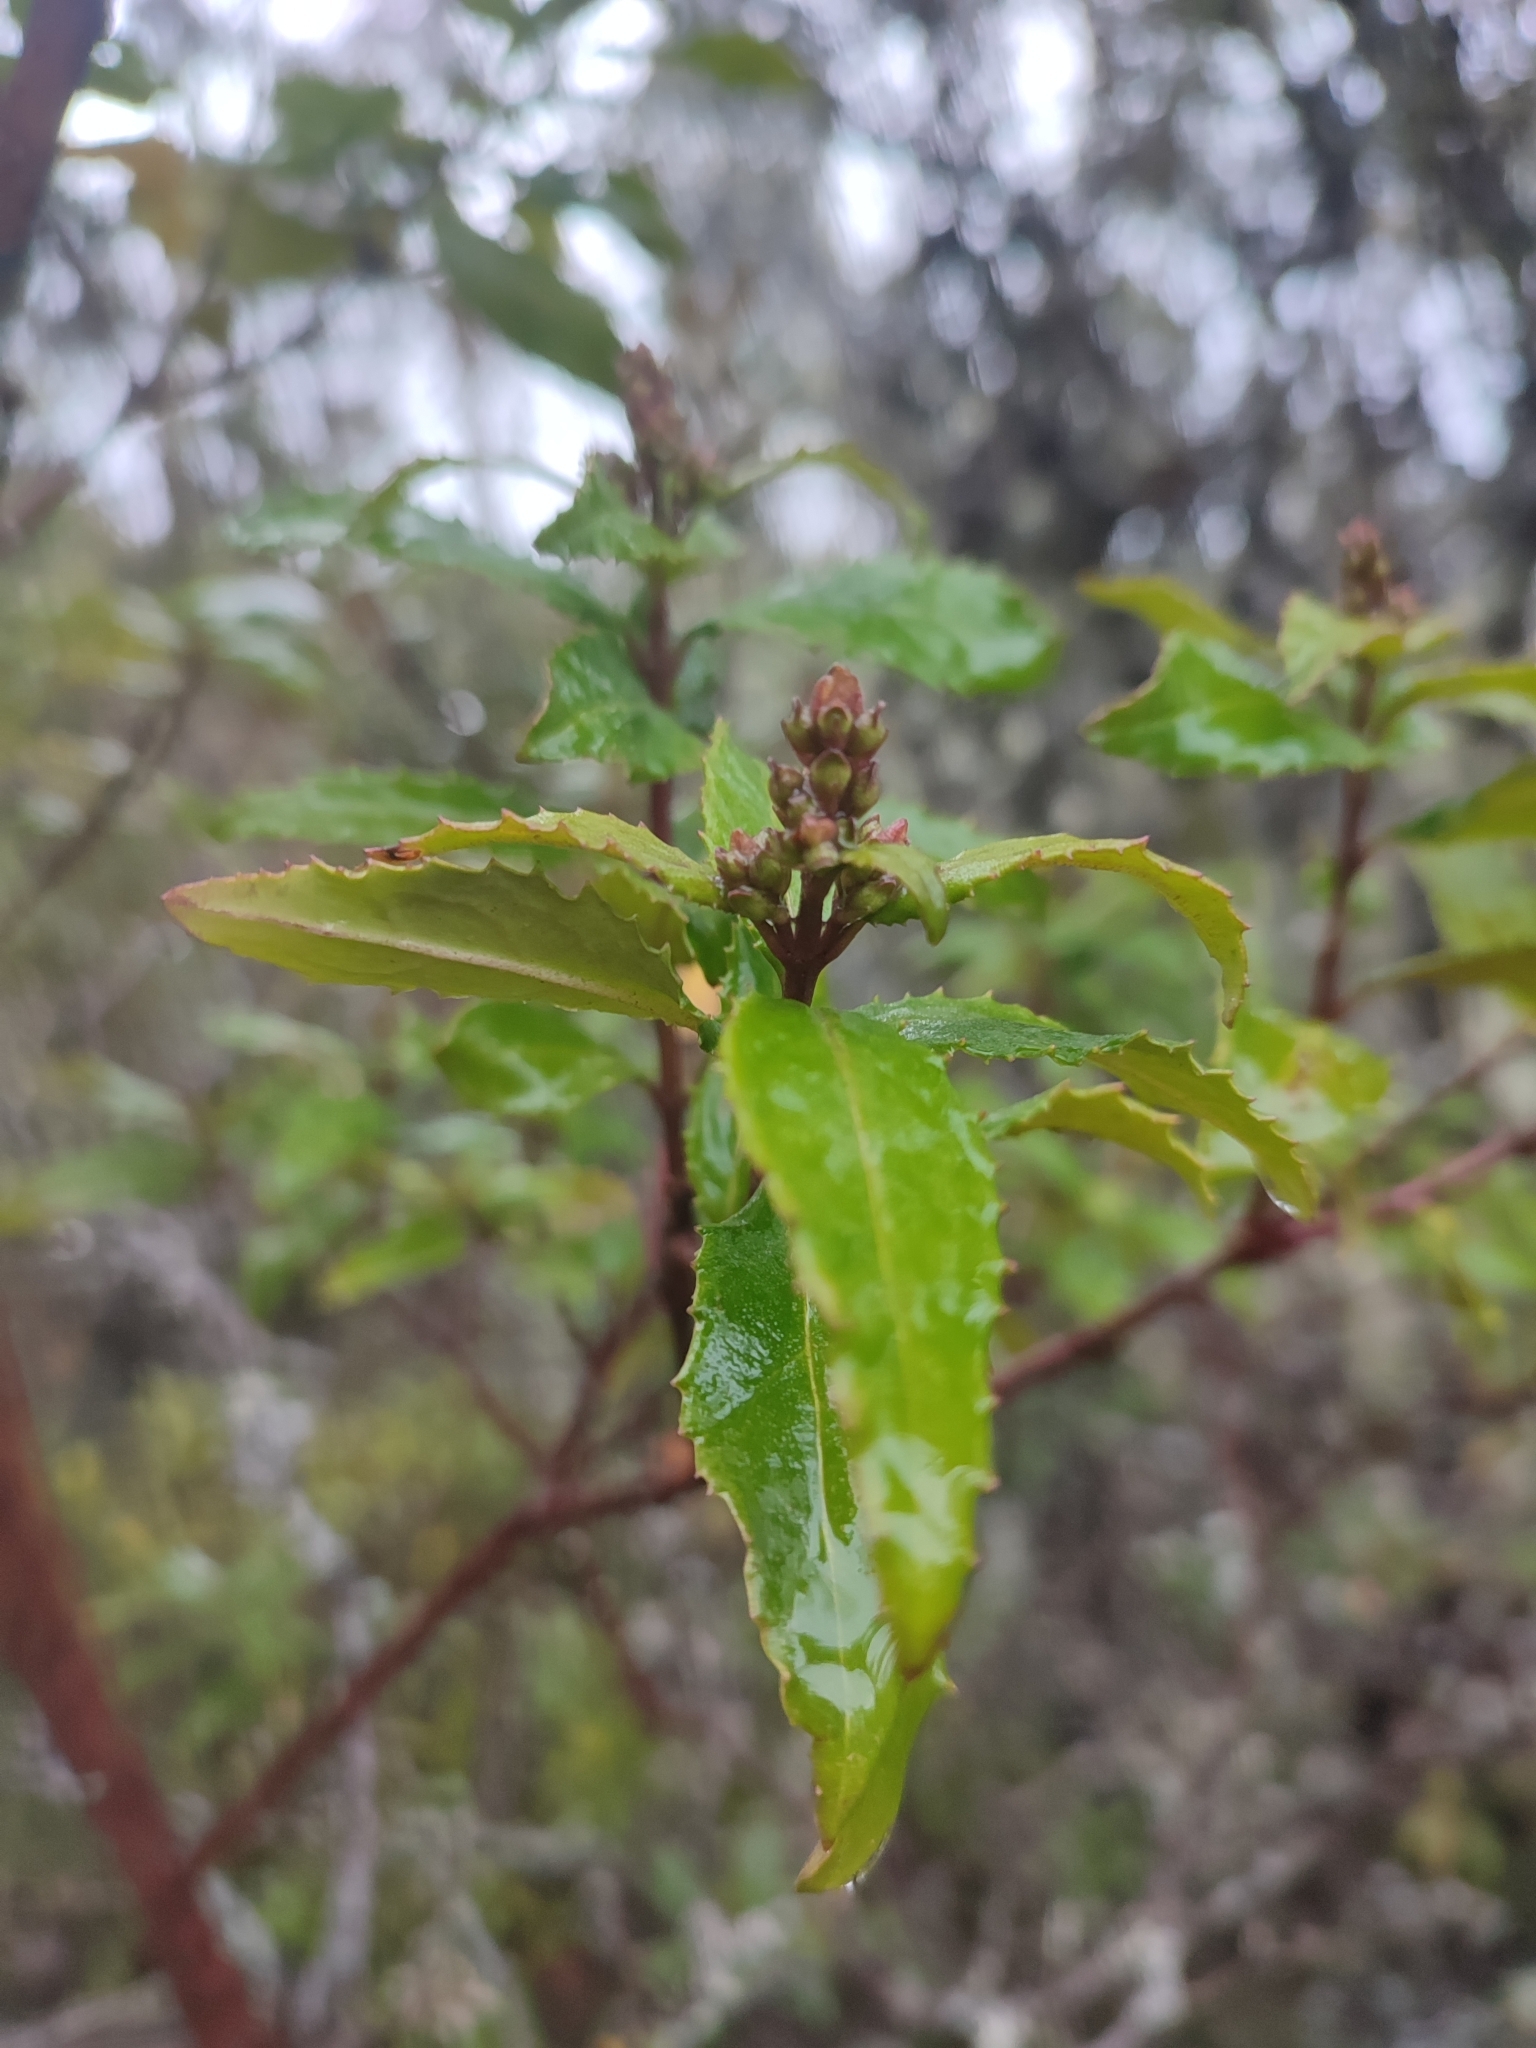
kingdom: Plantae
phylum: Tracheophyta
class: Magnoliopsida
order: Lamiales
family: Lamiaceae
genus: Prostanthera
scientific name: Prostanthera lasianthos
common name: Mountain-lilac
